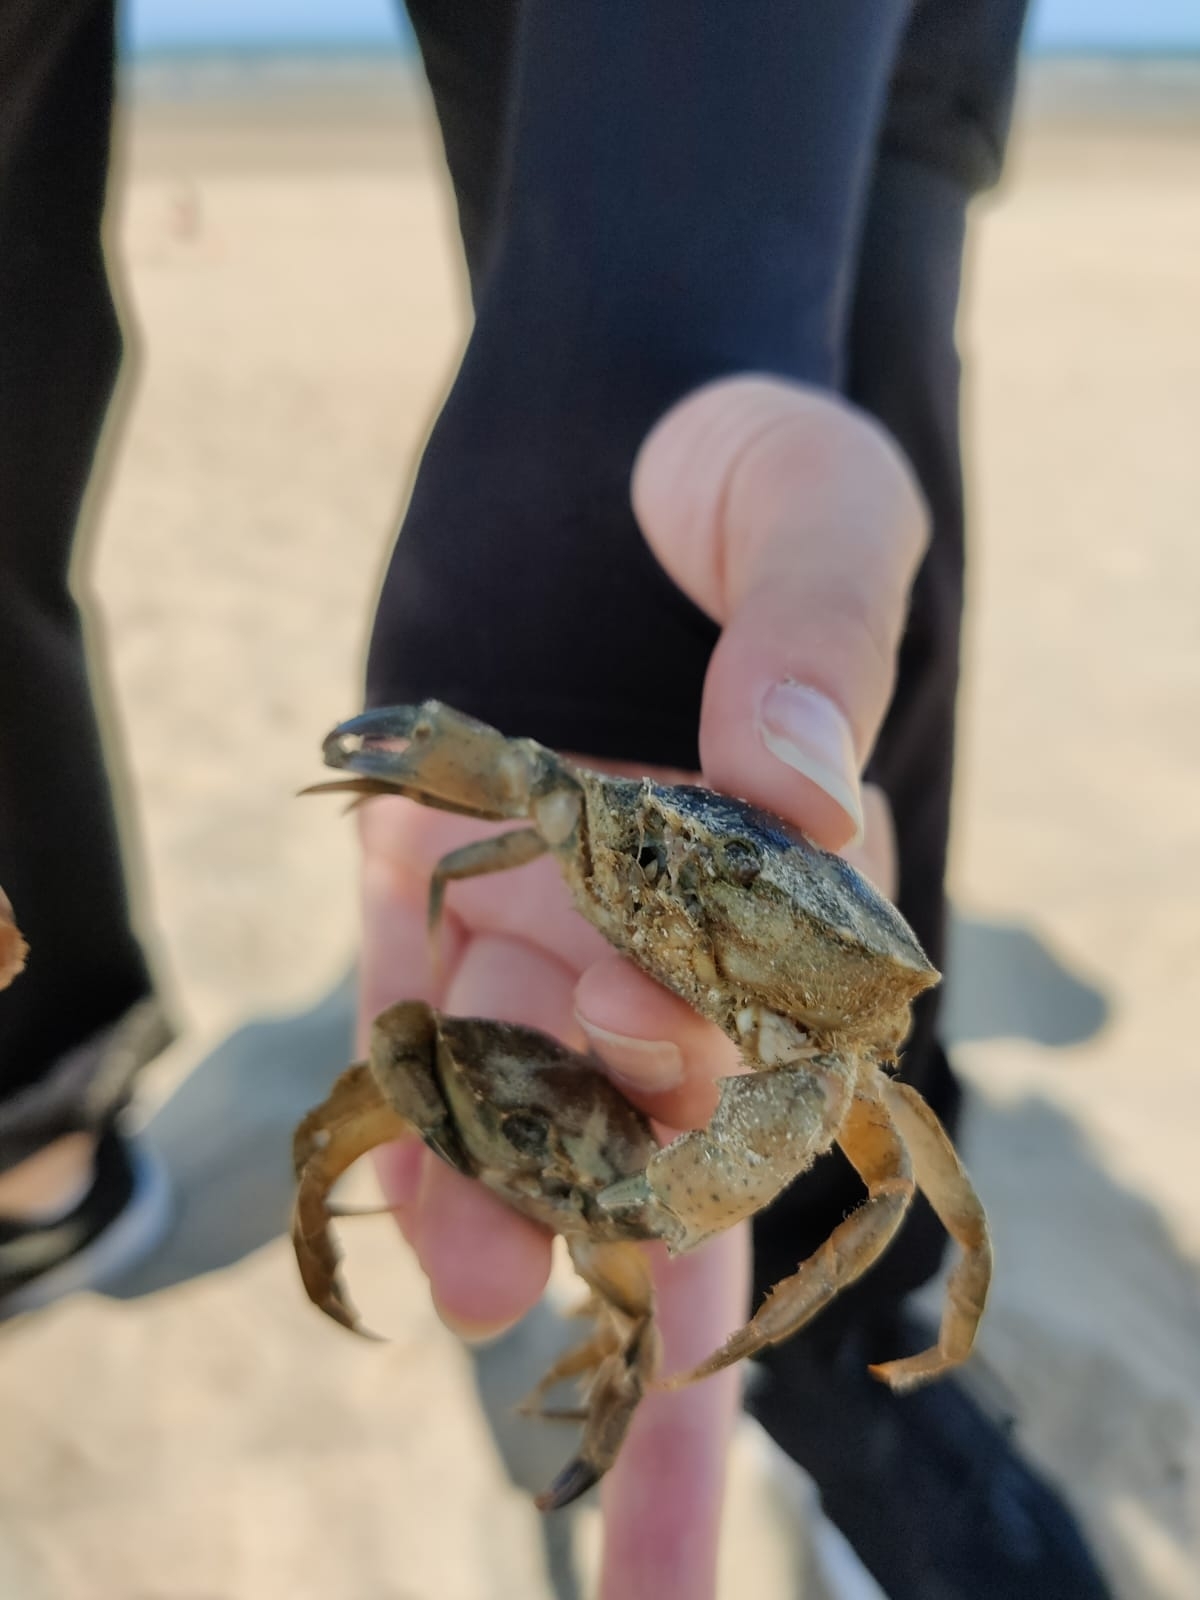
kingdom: Animalia
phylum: Arthropoda
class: Malacostraca
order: Decapoda
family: Carcinidae
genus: Carcinus
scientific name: Carcinus maenas
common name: European green crab
